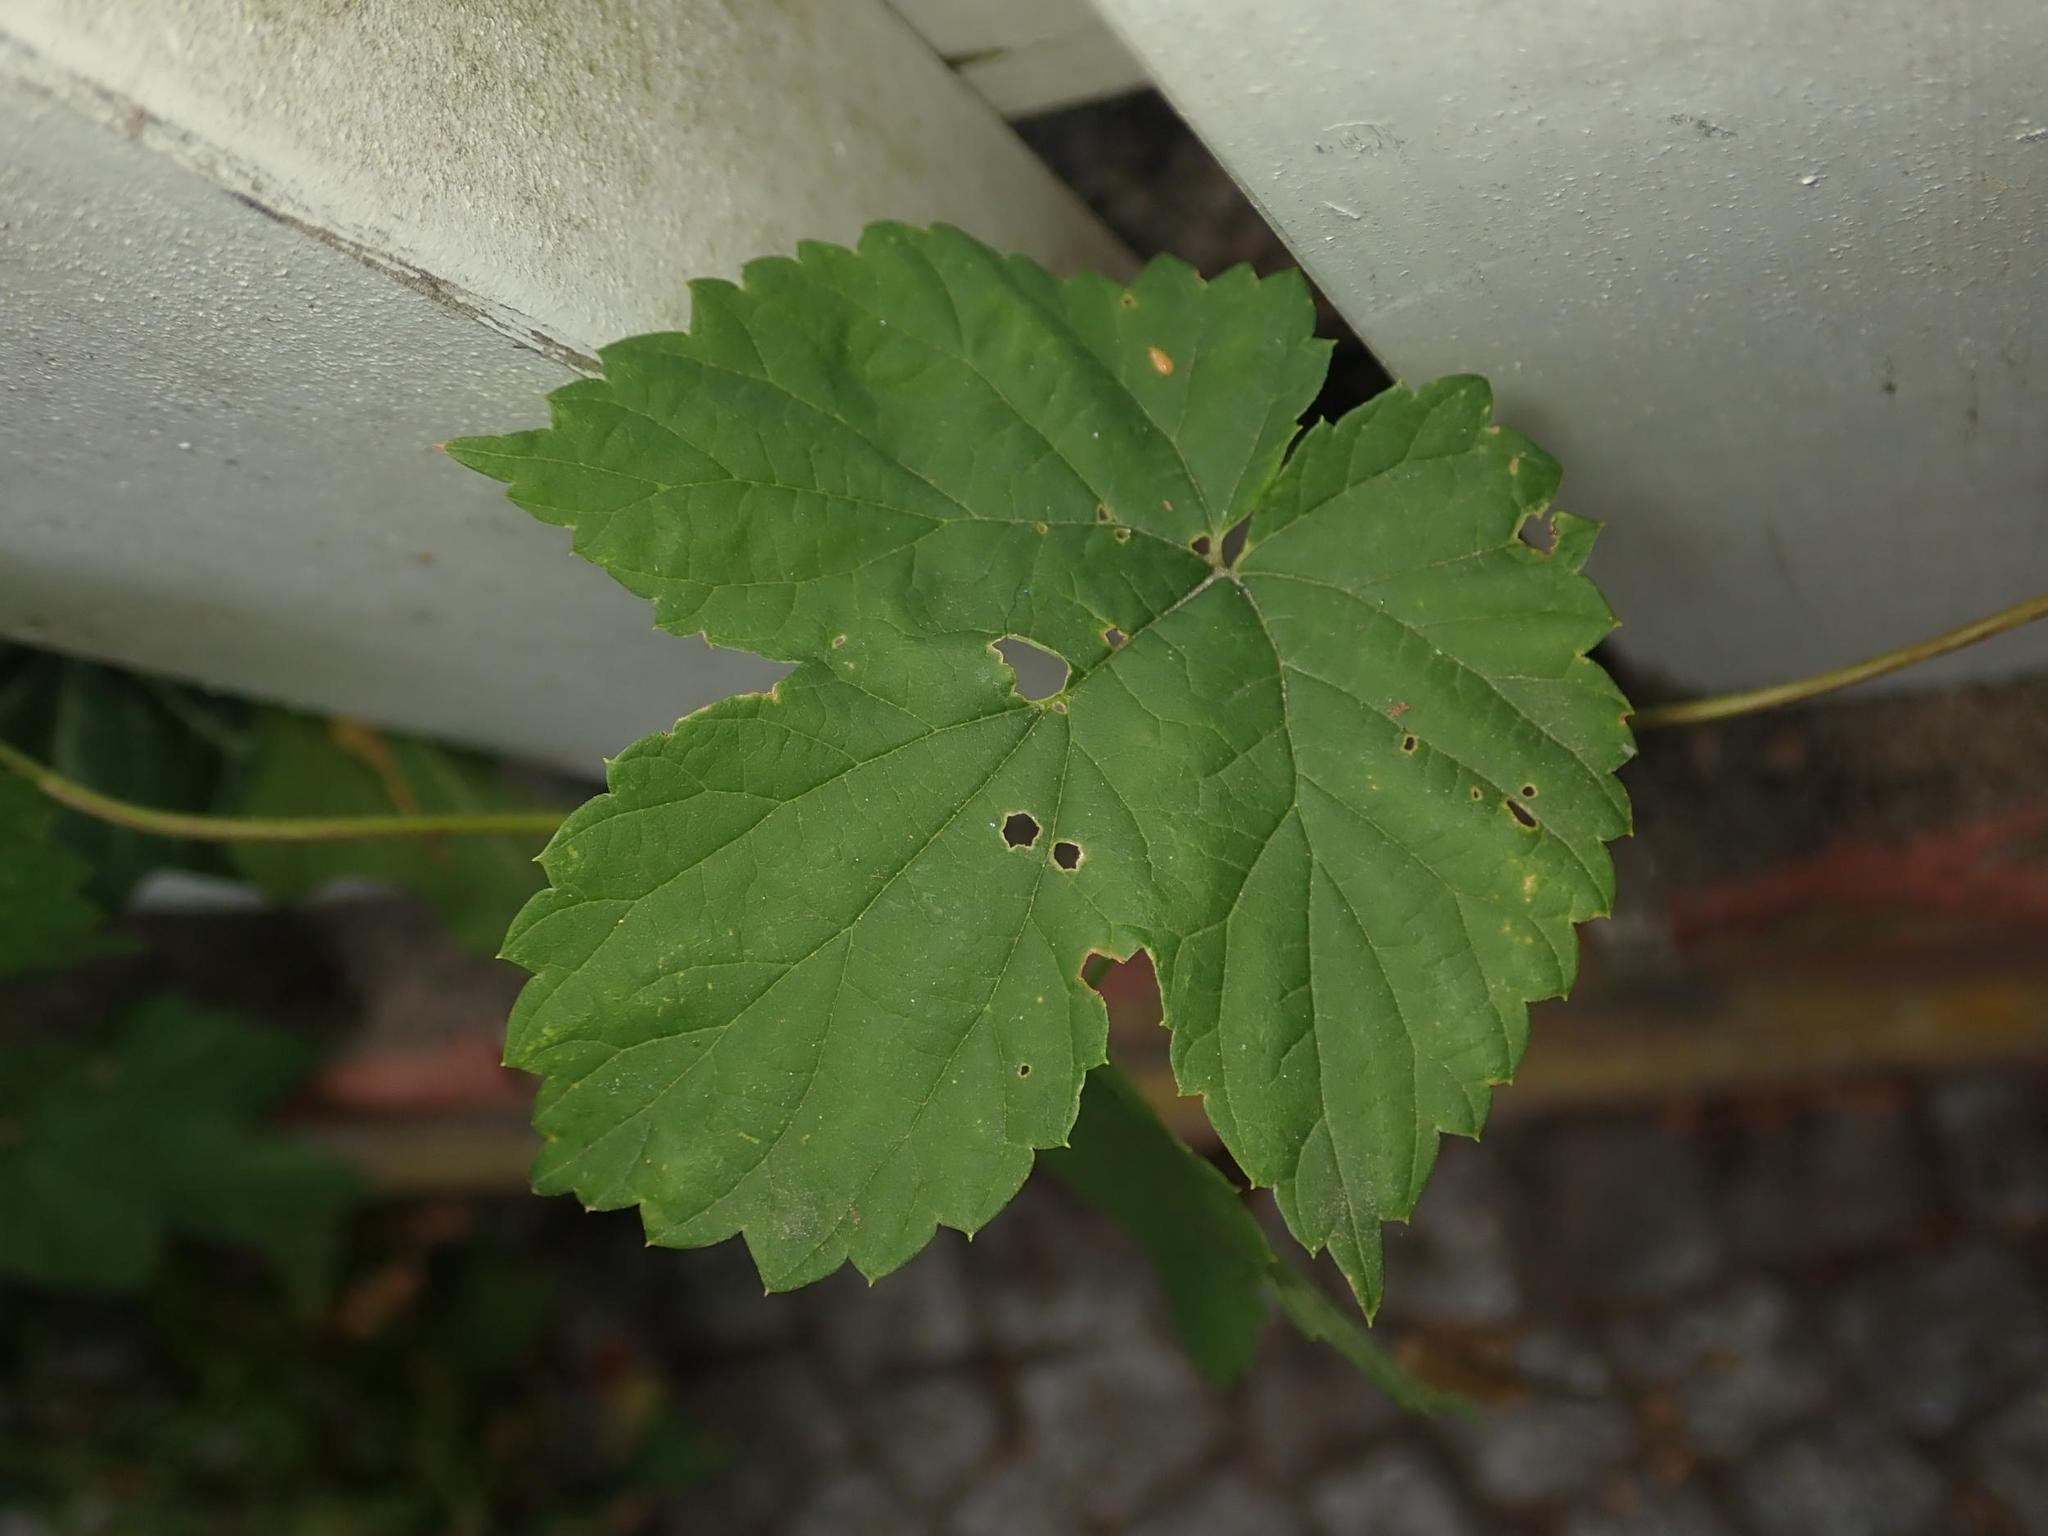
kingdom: Plantae
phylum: Tracheophyta
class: Magnoliopsida
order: Rosales
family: Cannabaceae
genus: Humulus
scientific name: Humulus lupulus
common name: Hop
